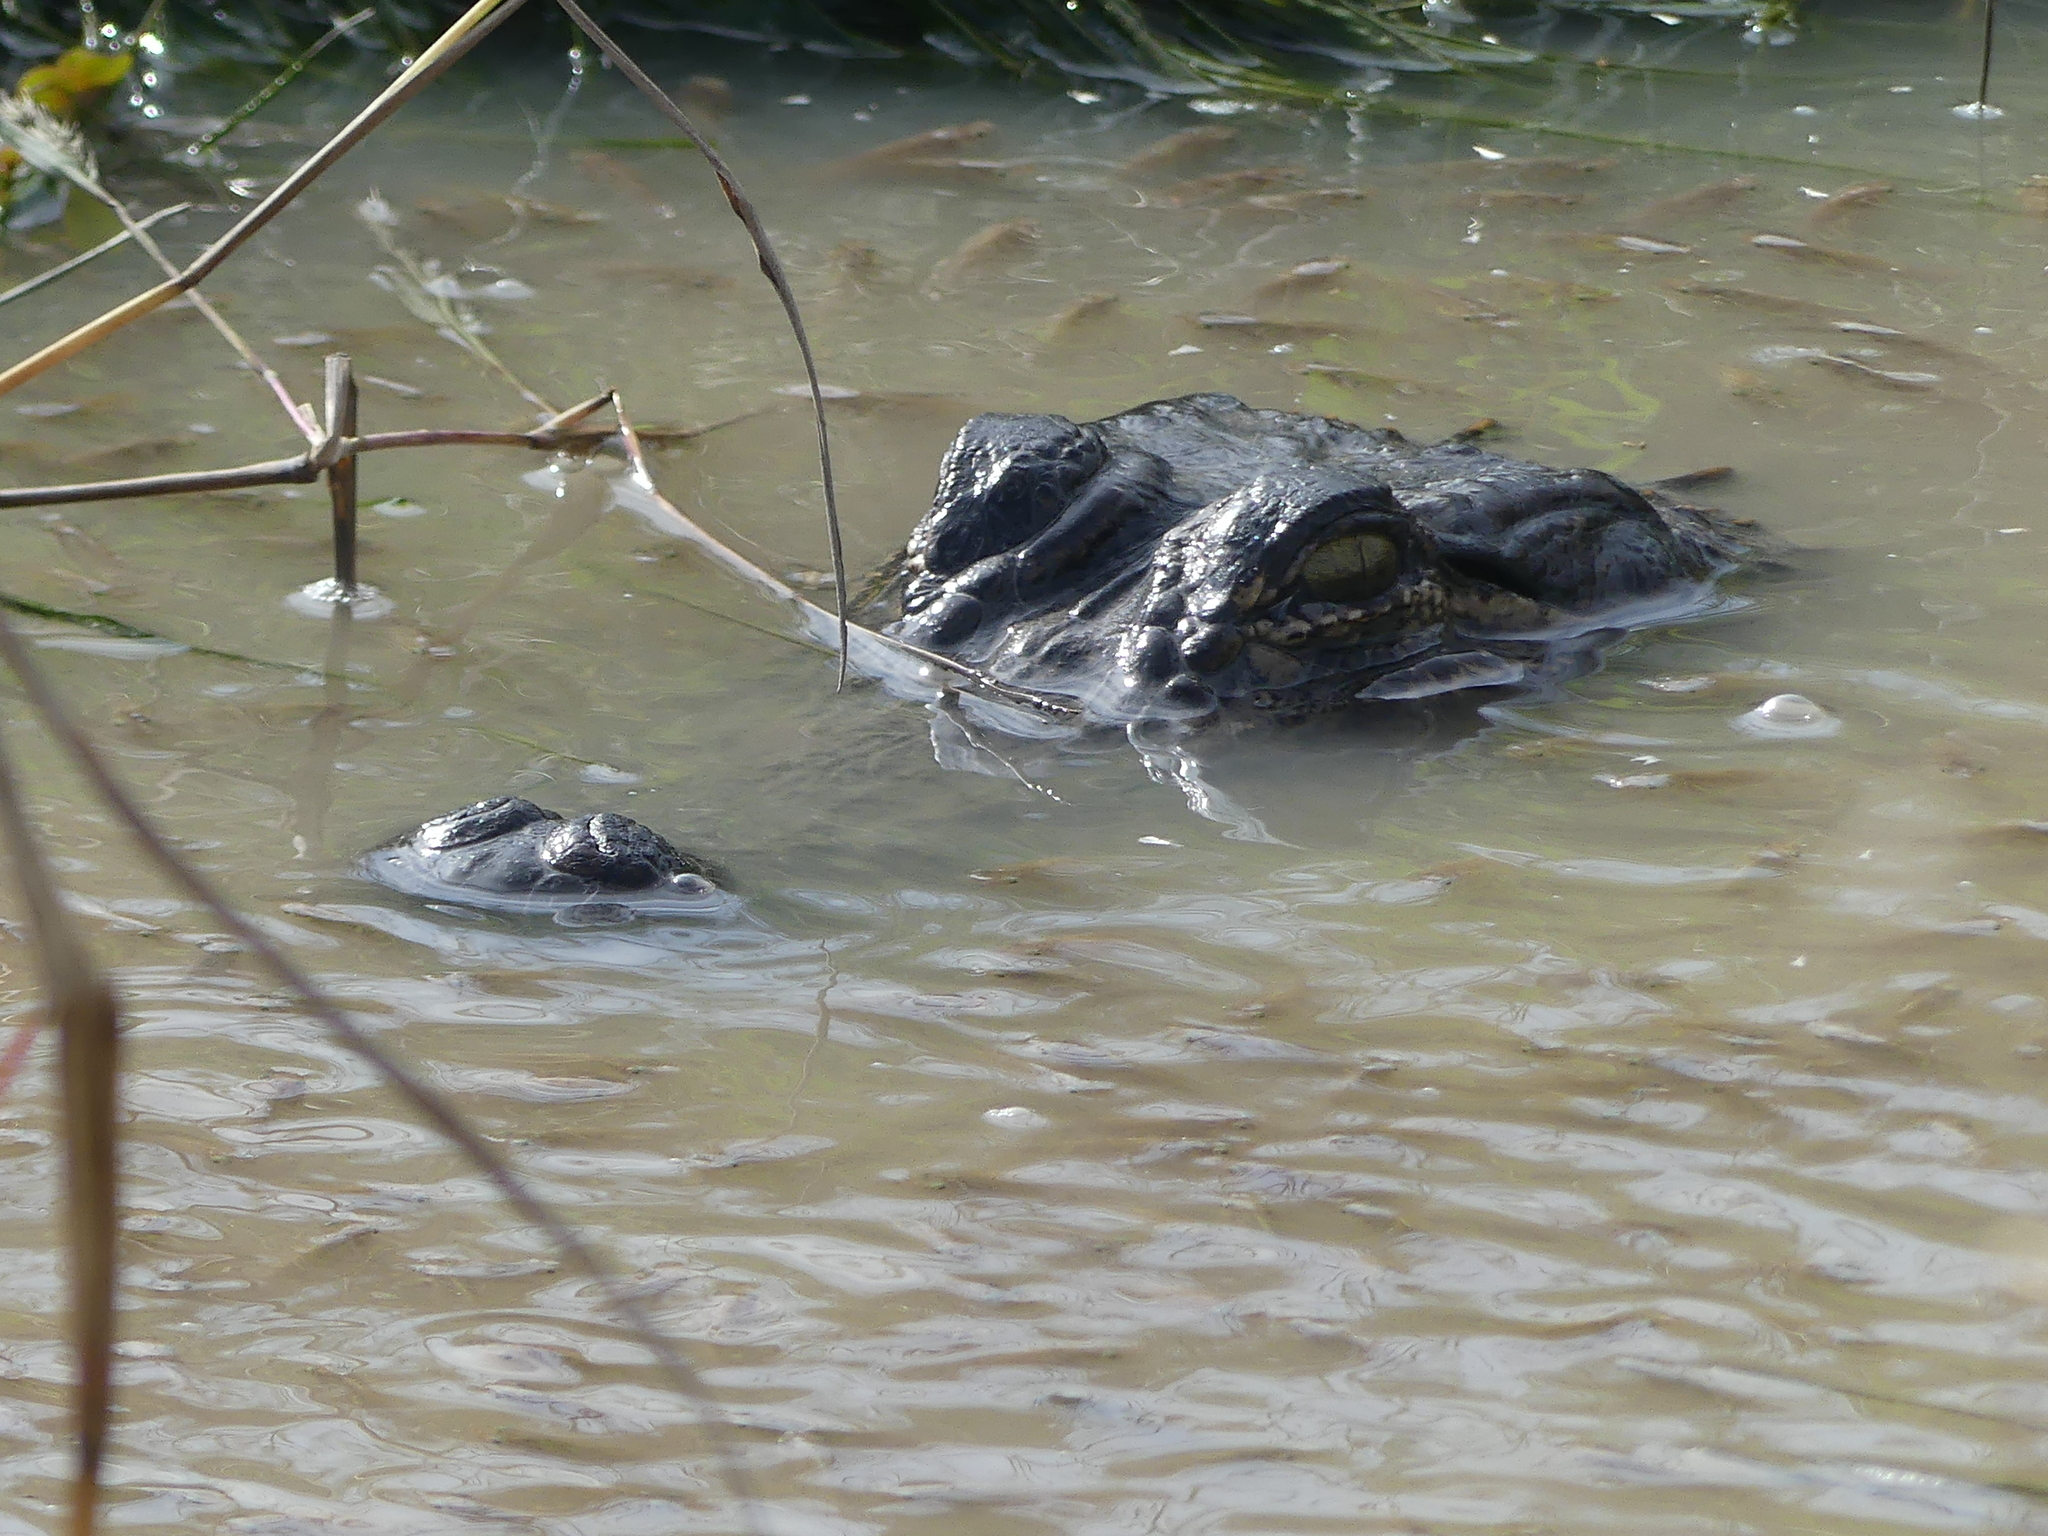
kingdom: Animalia
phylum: Chordata
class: Crocodylia
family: Alligatoridae
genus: Alligator
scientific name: Alligator mississippiensis
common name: American alligator
